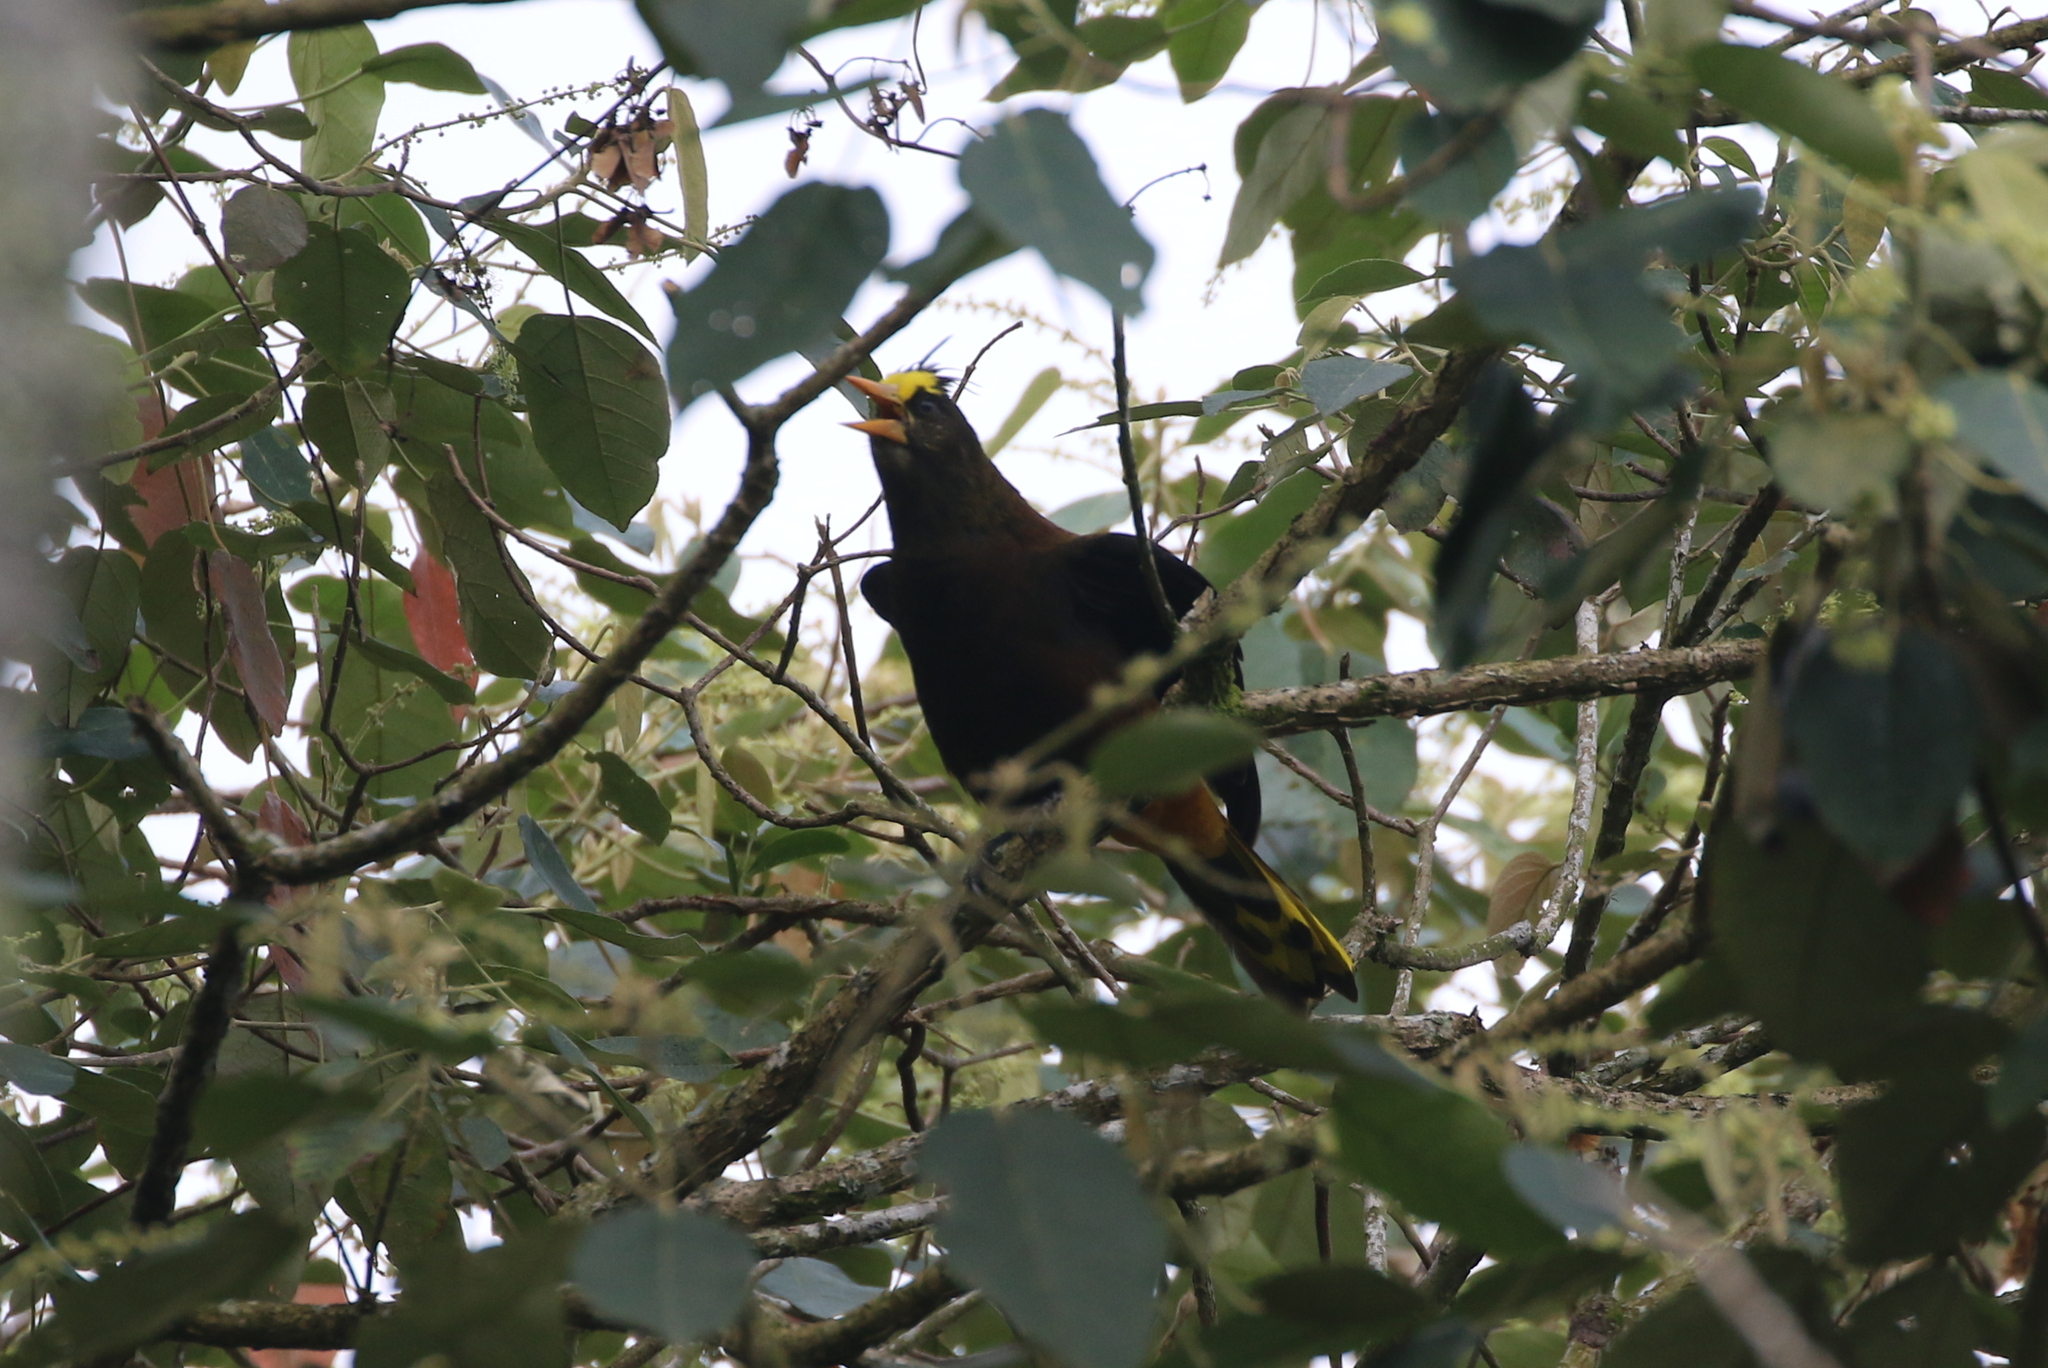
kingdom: Animalia
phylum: Chordata
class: Aves
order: Passeriformes
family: Icteridae
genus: Psarocolius
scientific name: Psarocolius angustifrons
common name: Russet-backed oropendola
